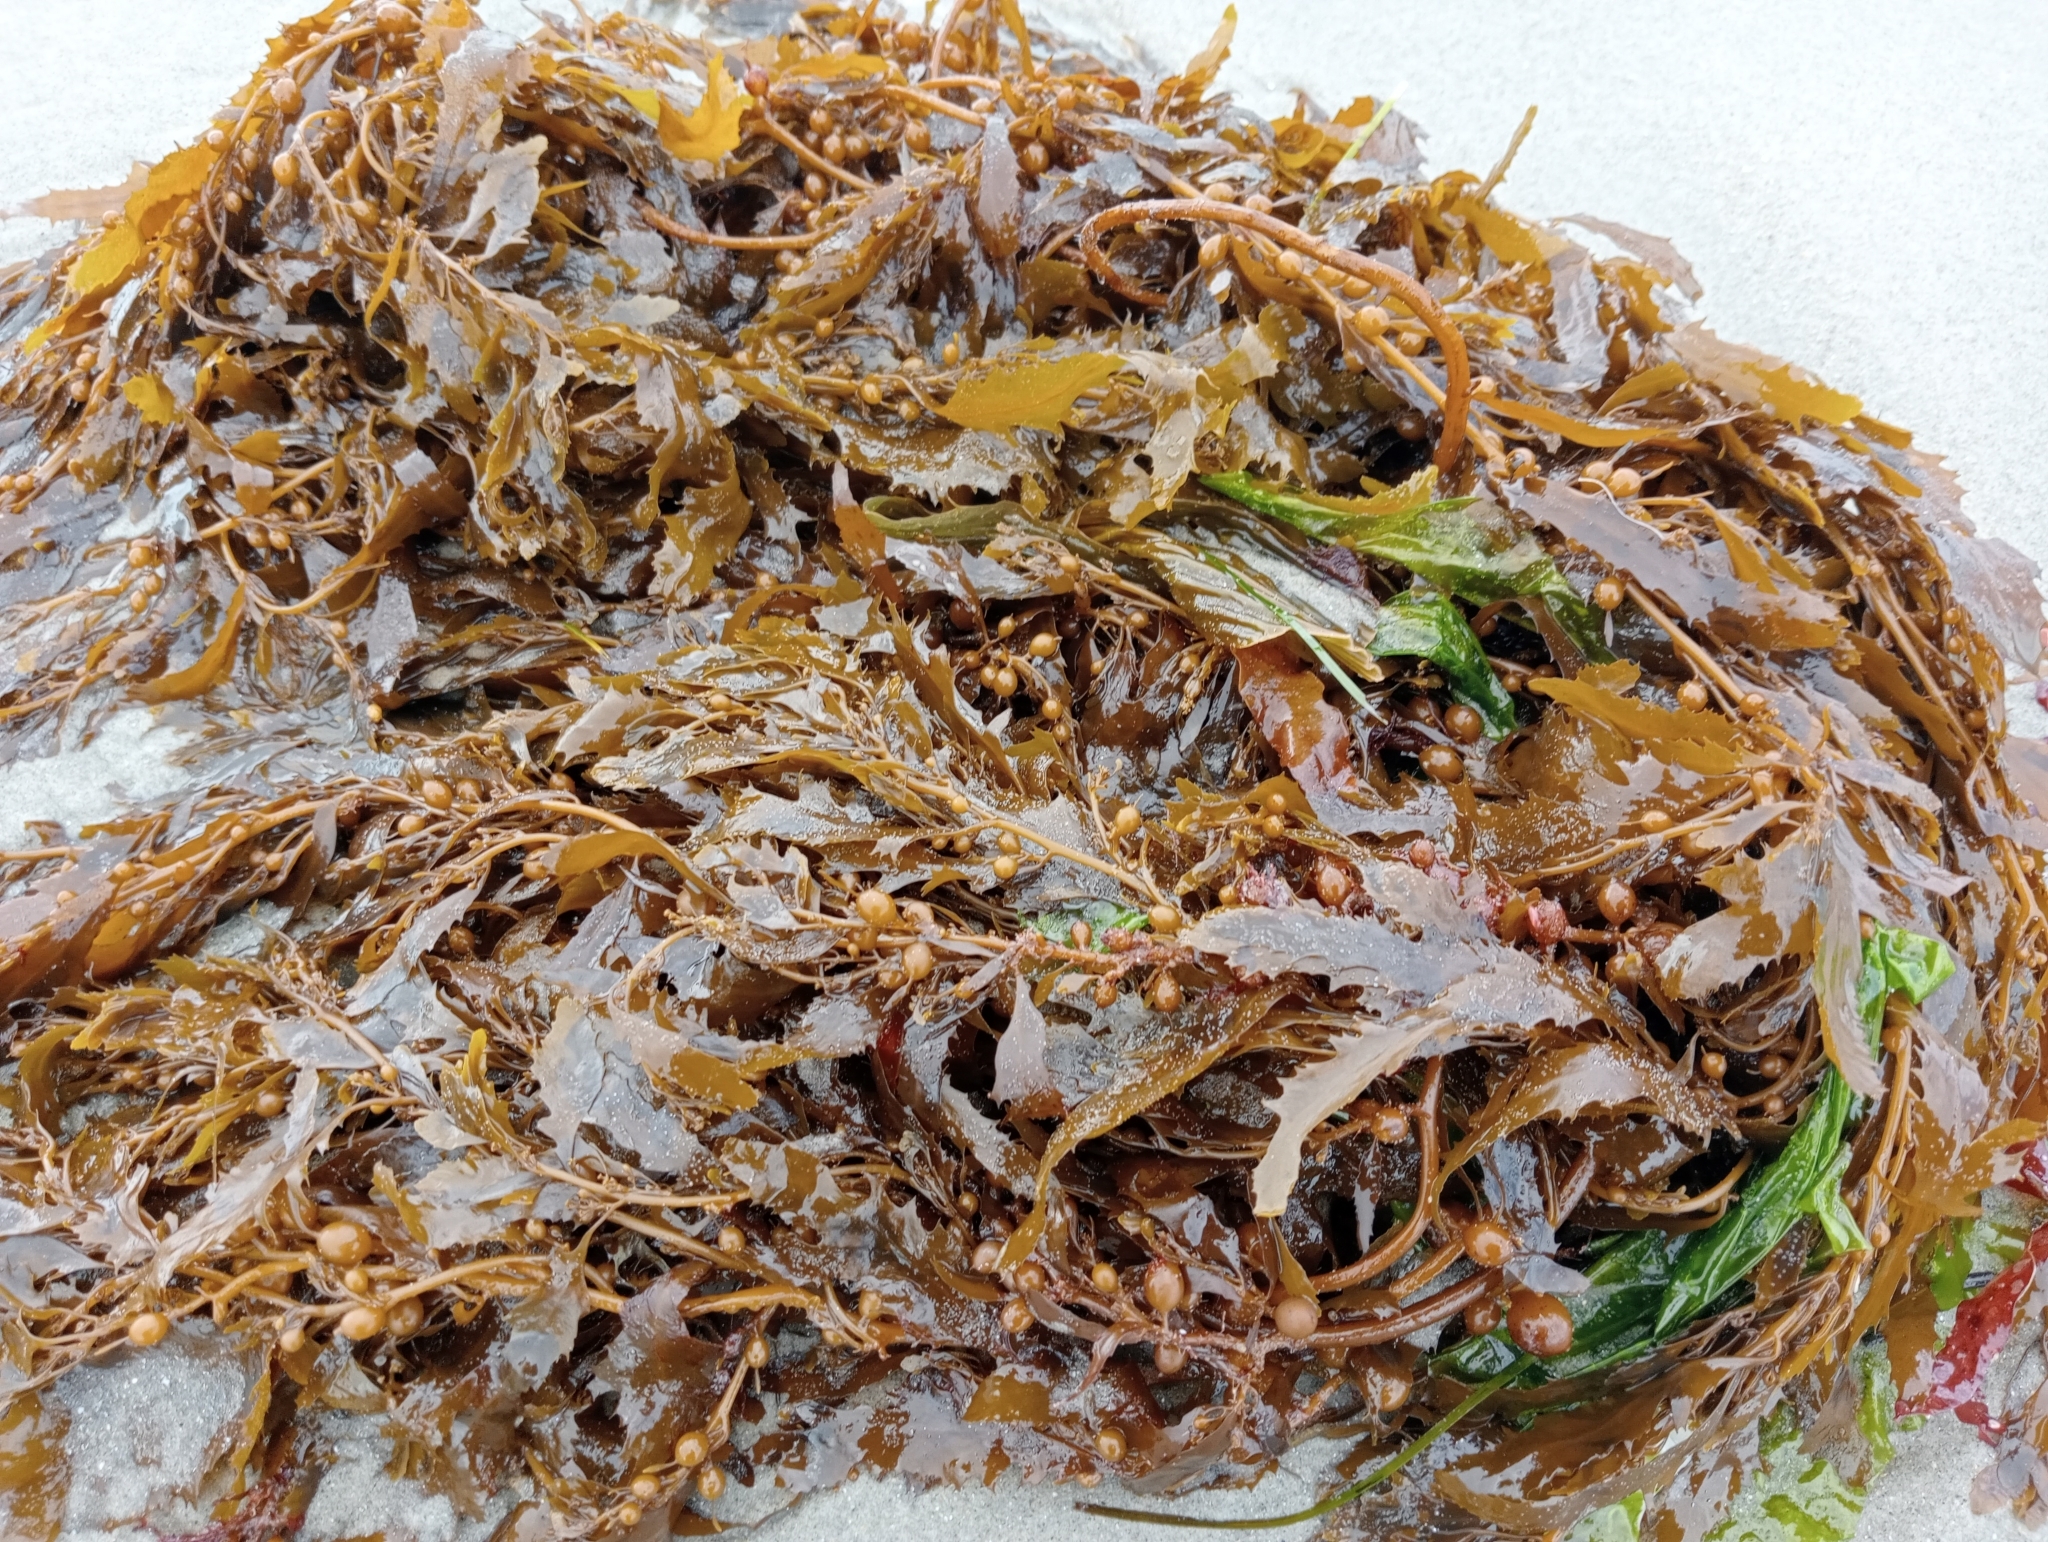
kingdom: Chromista
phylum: Ochrophyta
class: Phaeophyceae
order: Fucales
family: Sargassaceae
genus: Sargassum
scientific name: Sargassum sinclairii
